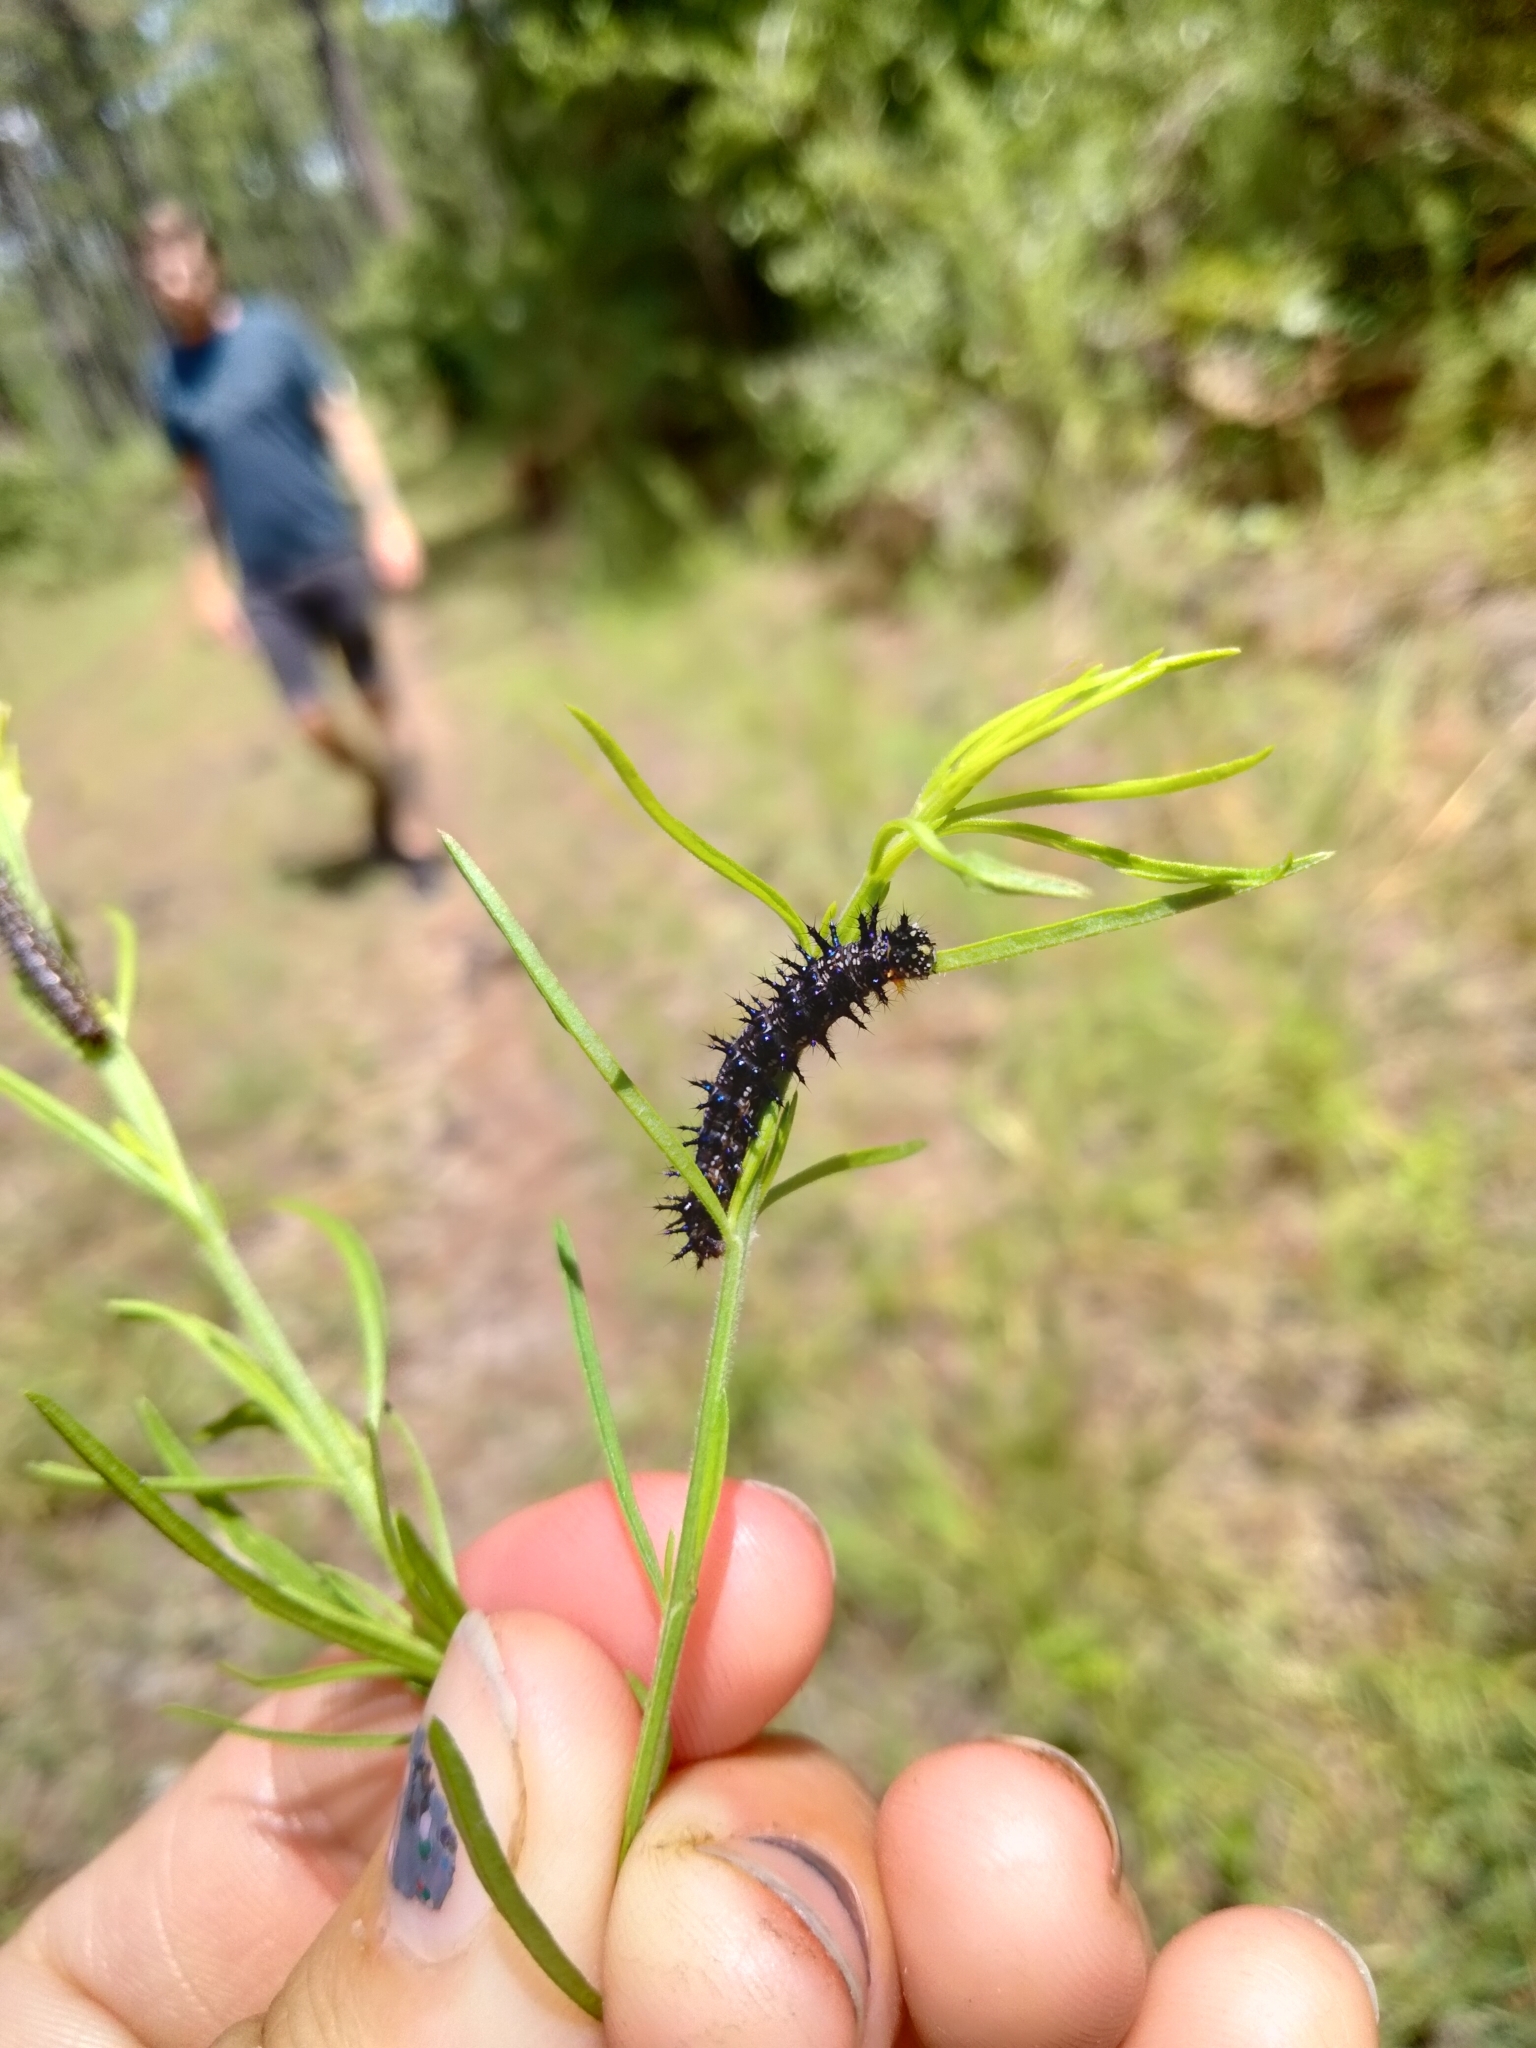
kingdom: Animalia
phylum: Arthropoda
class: Insecta
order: Lepidoptera
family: Nymphalidae
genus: Junonia
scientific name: Junonia coenia
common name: Common buckeye
